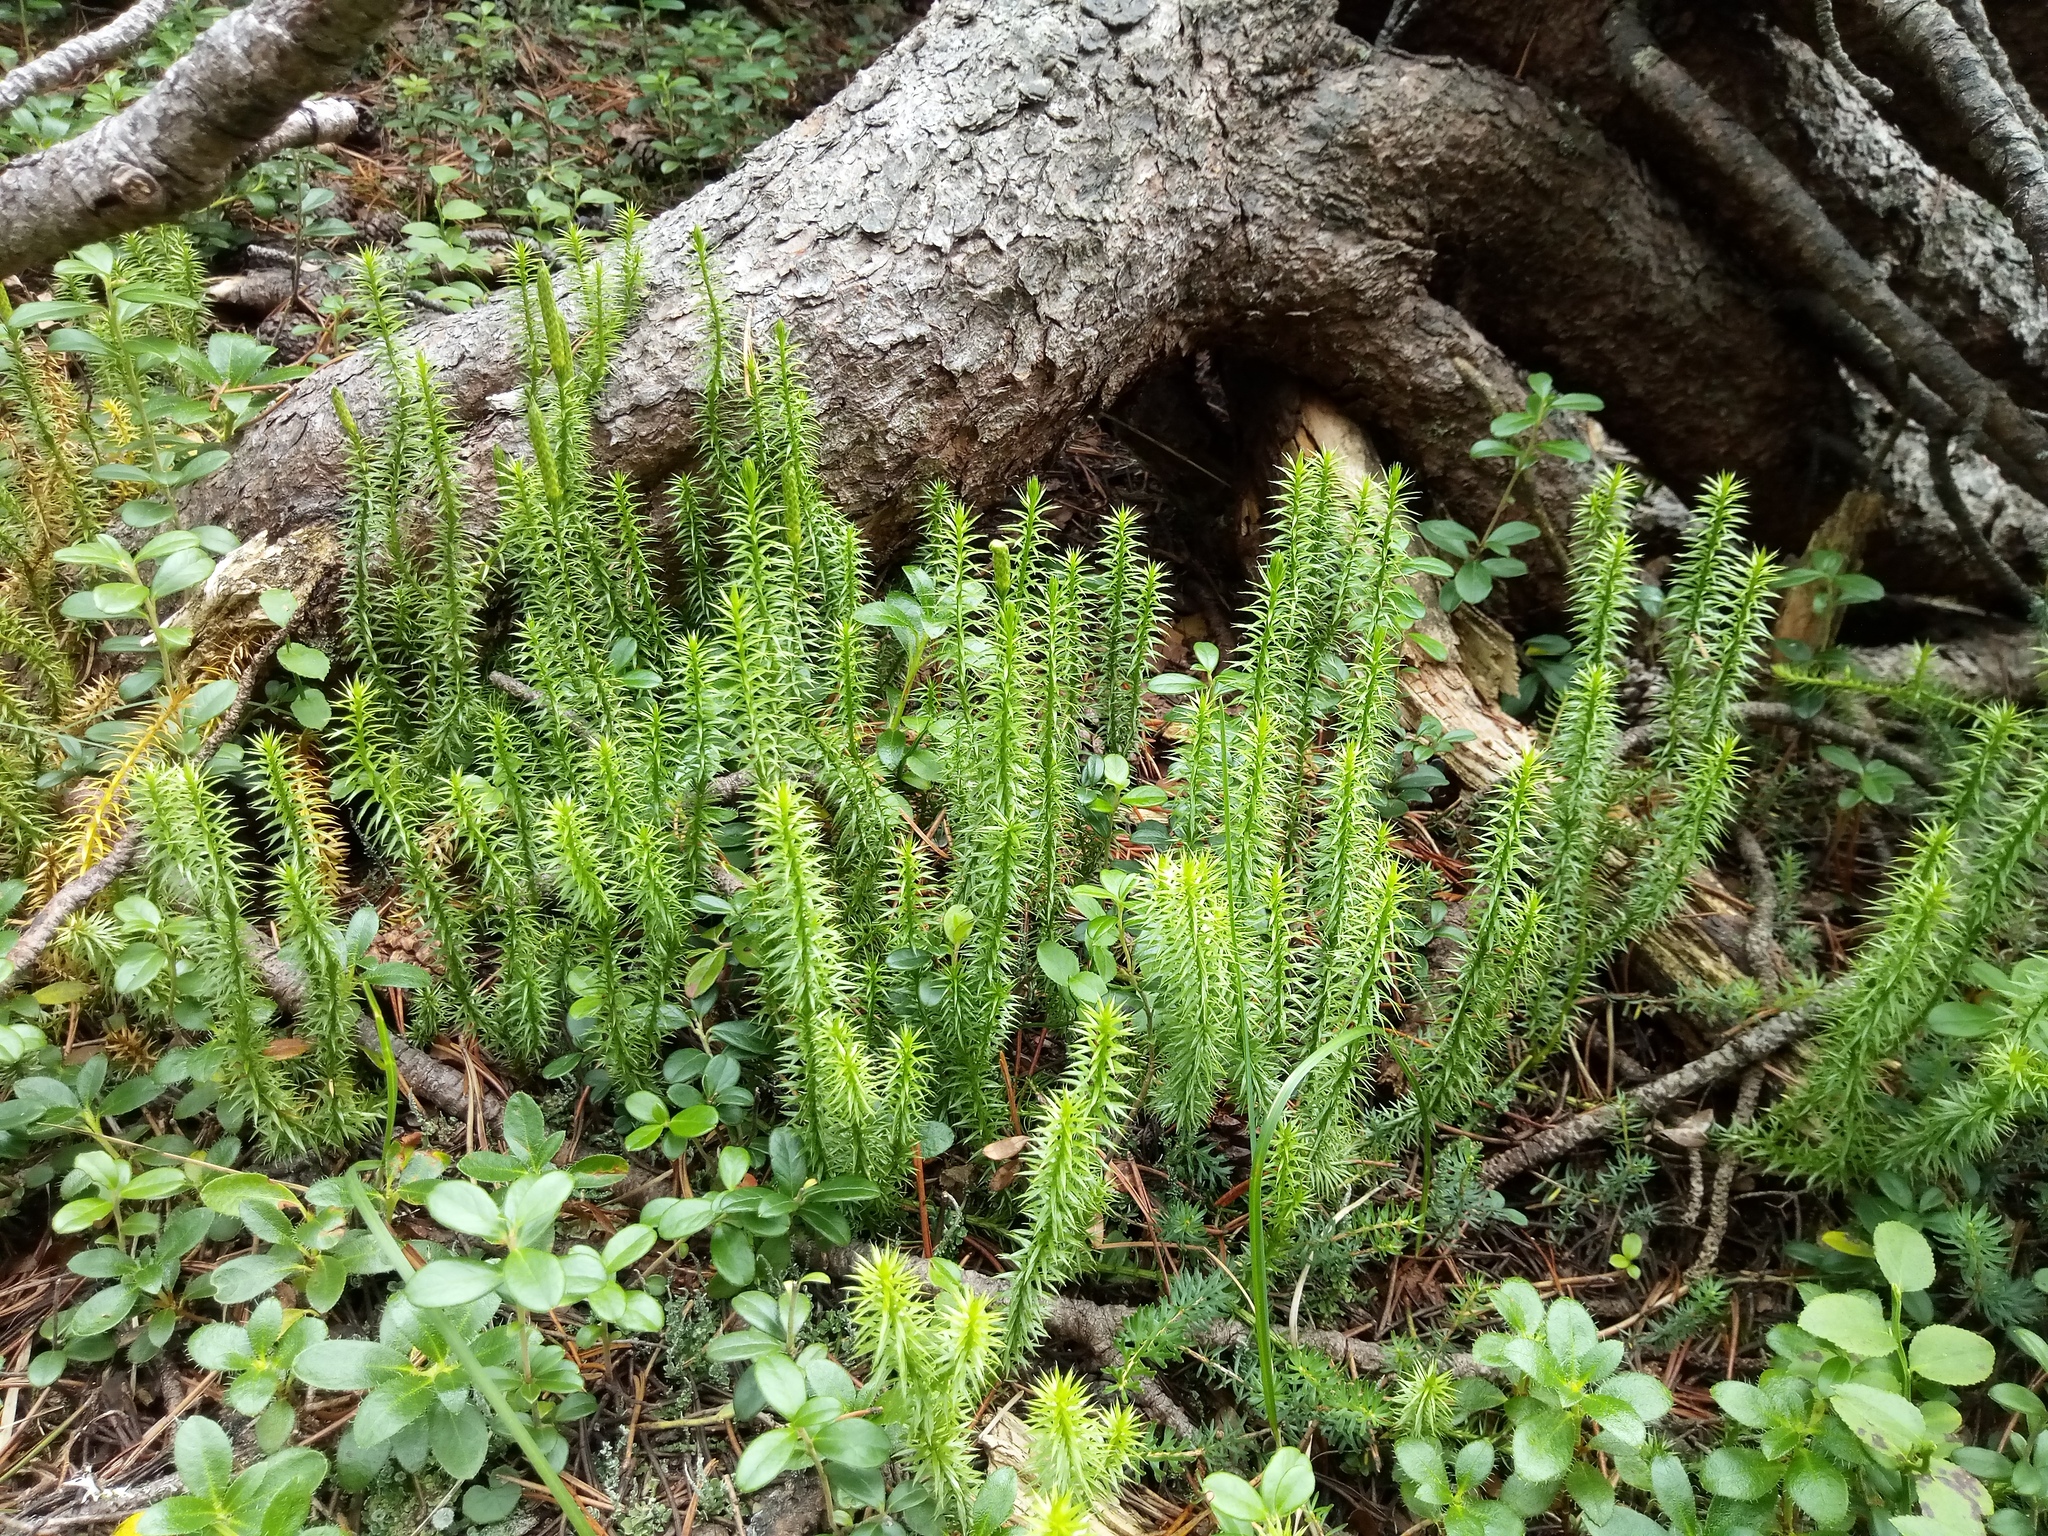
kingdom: Plantae
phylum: Tracheophyta
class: Lycopodiopsida
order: Lycopodiales
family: Lycopodiaceae
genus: Spinulum
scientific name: Spinulum annotinum
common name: Interrupted club-moss
